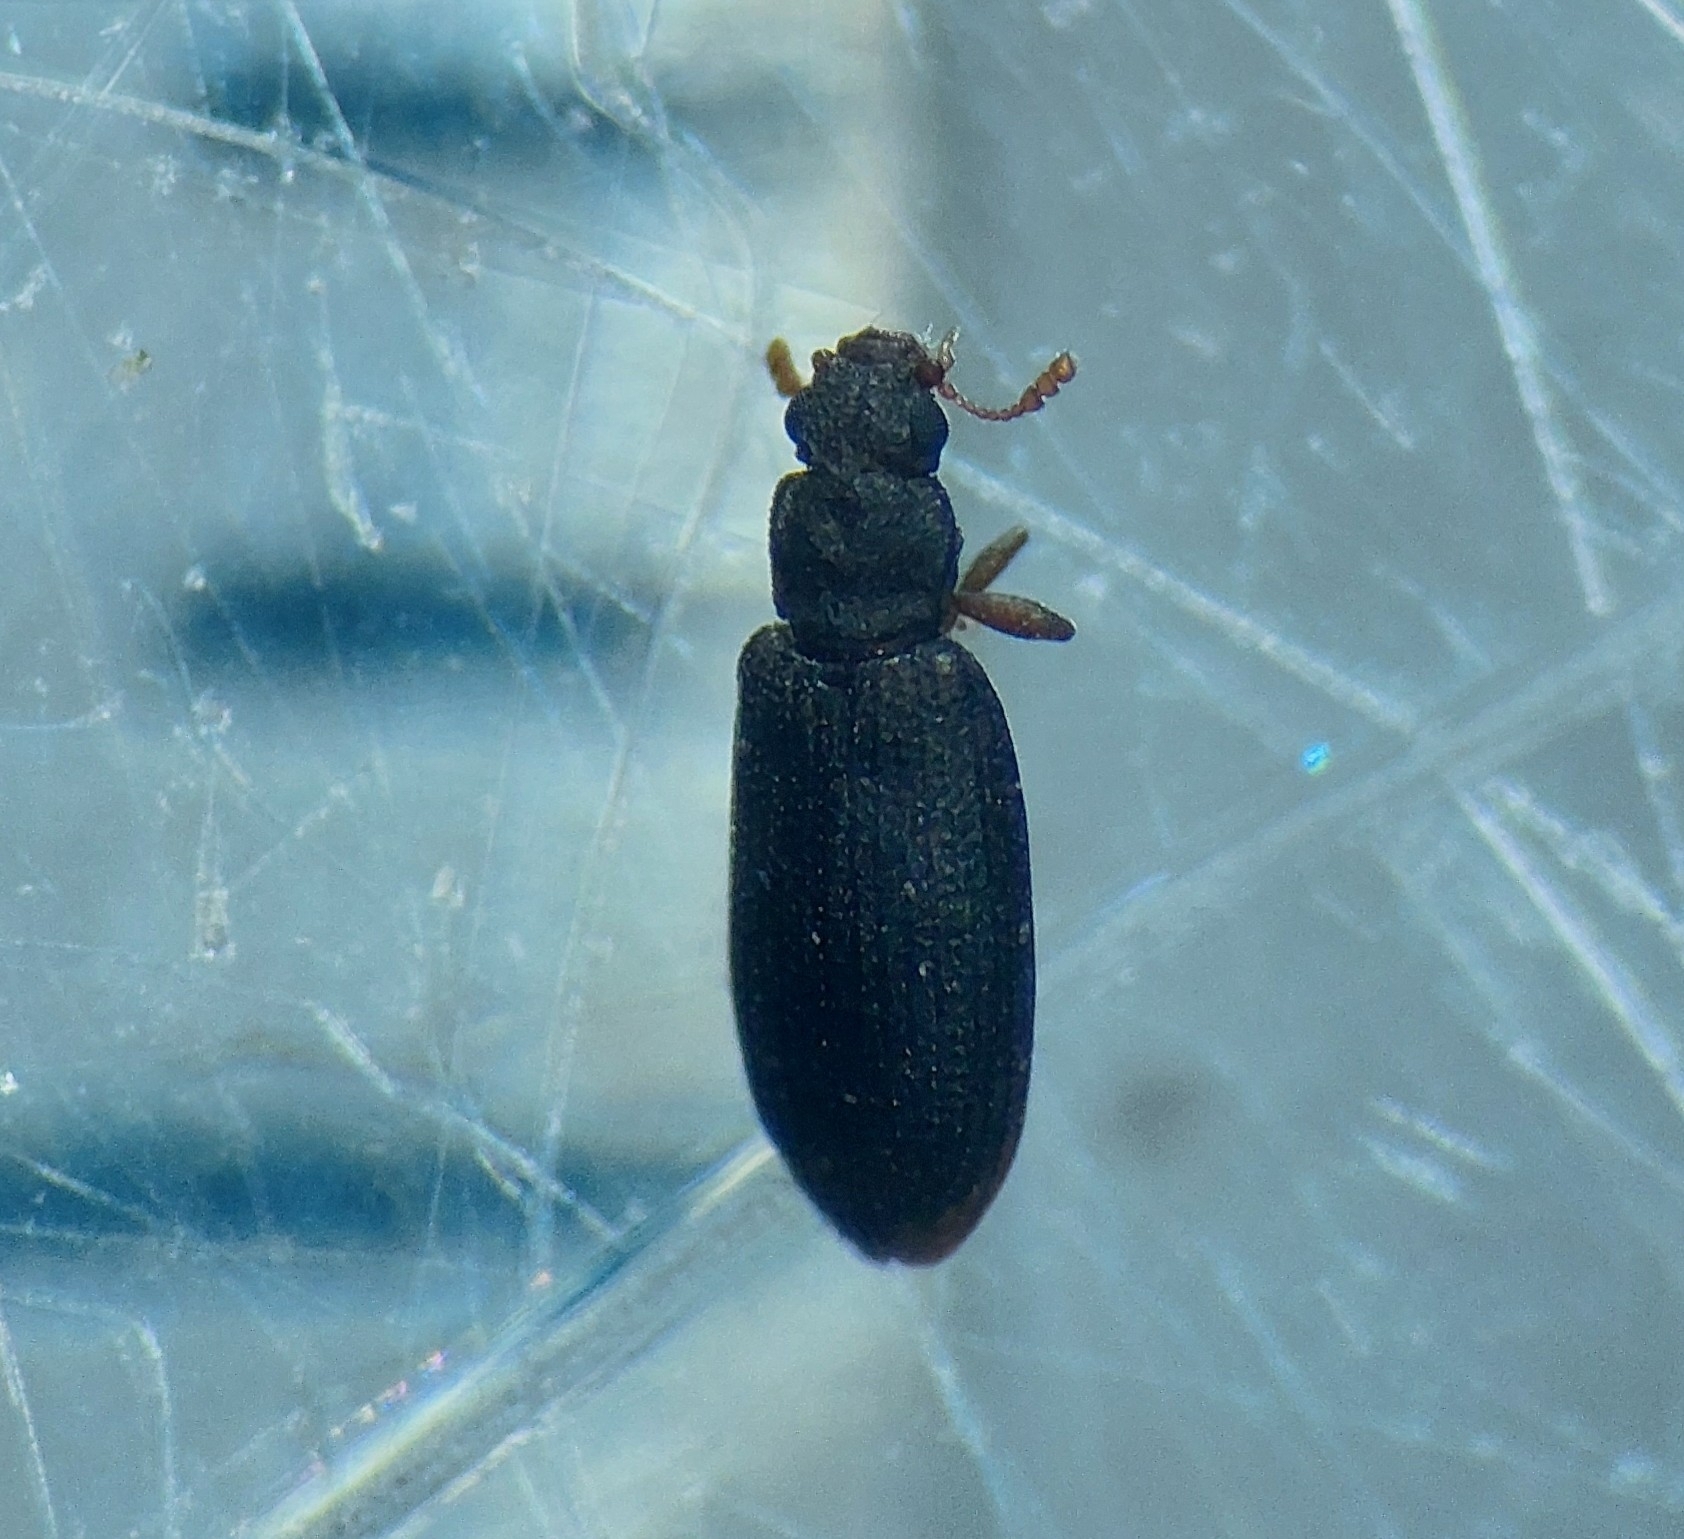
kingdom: Animalia
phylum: Arthropoda
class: Insecta
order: Coleoptera
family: Latridiidae
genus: Enicmus
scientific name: Enicmus brevicornis
